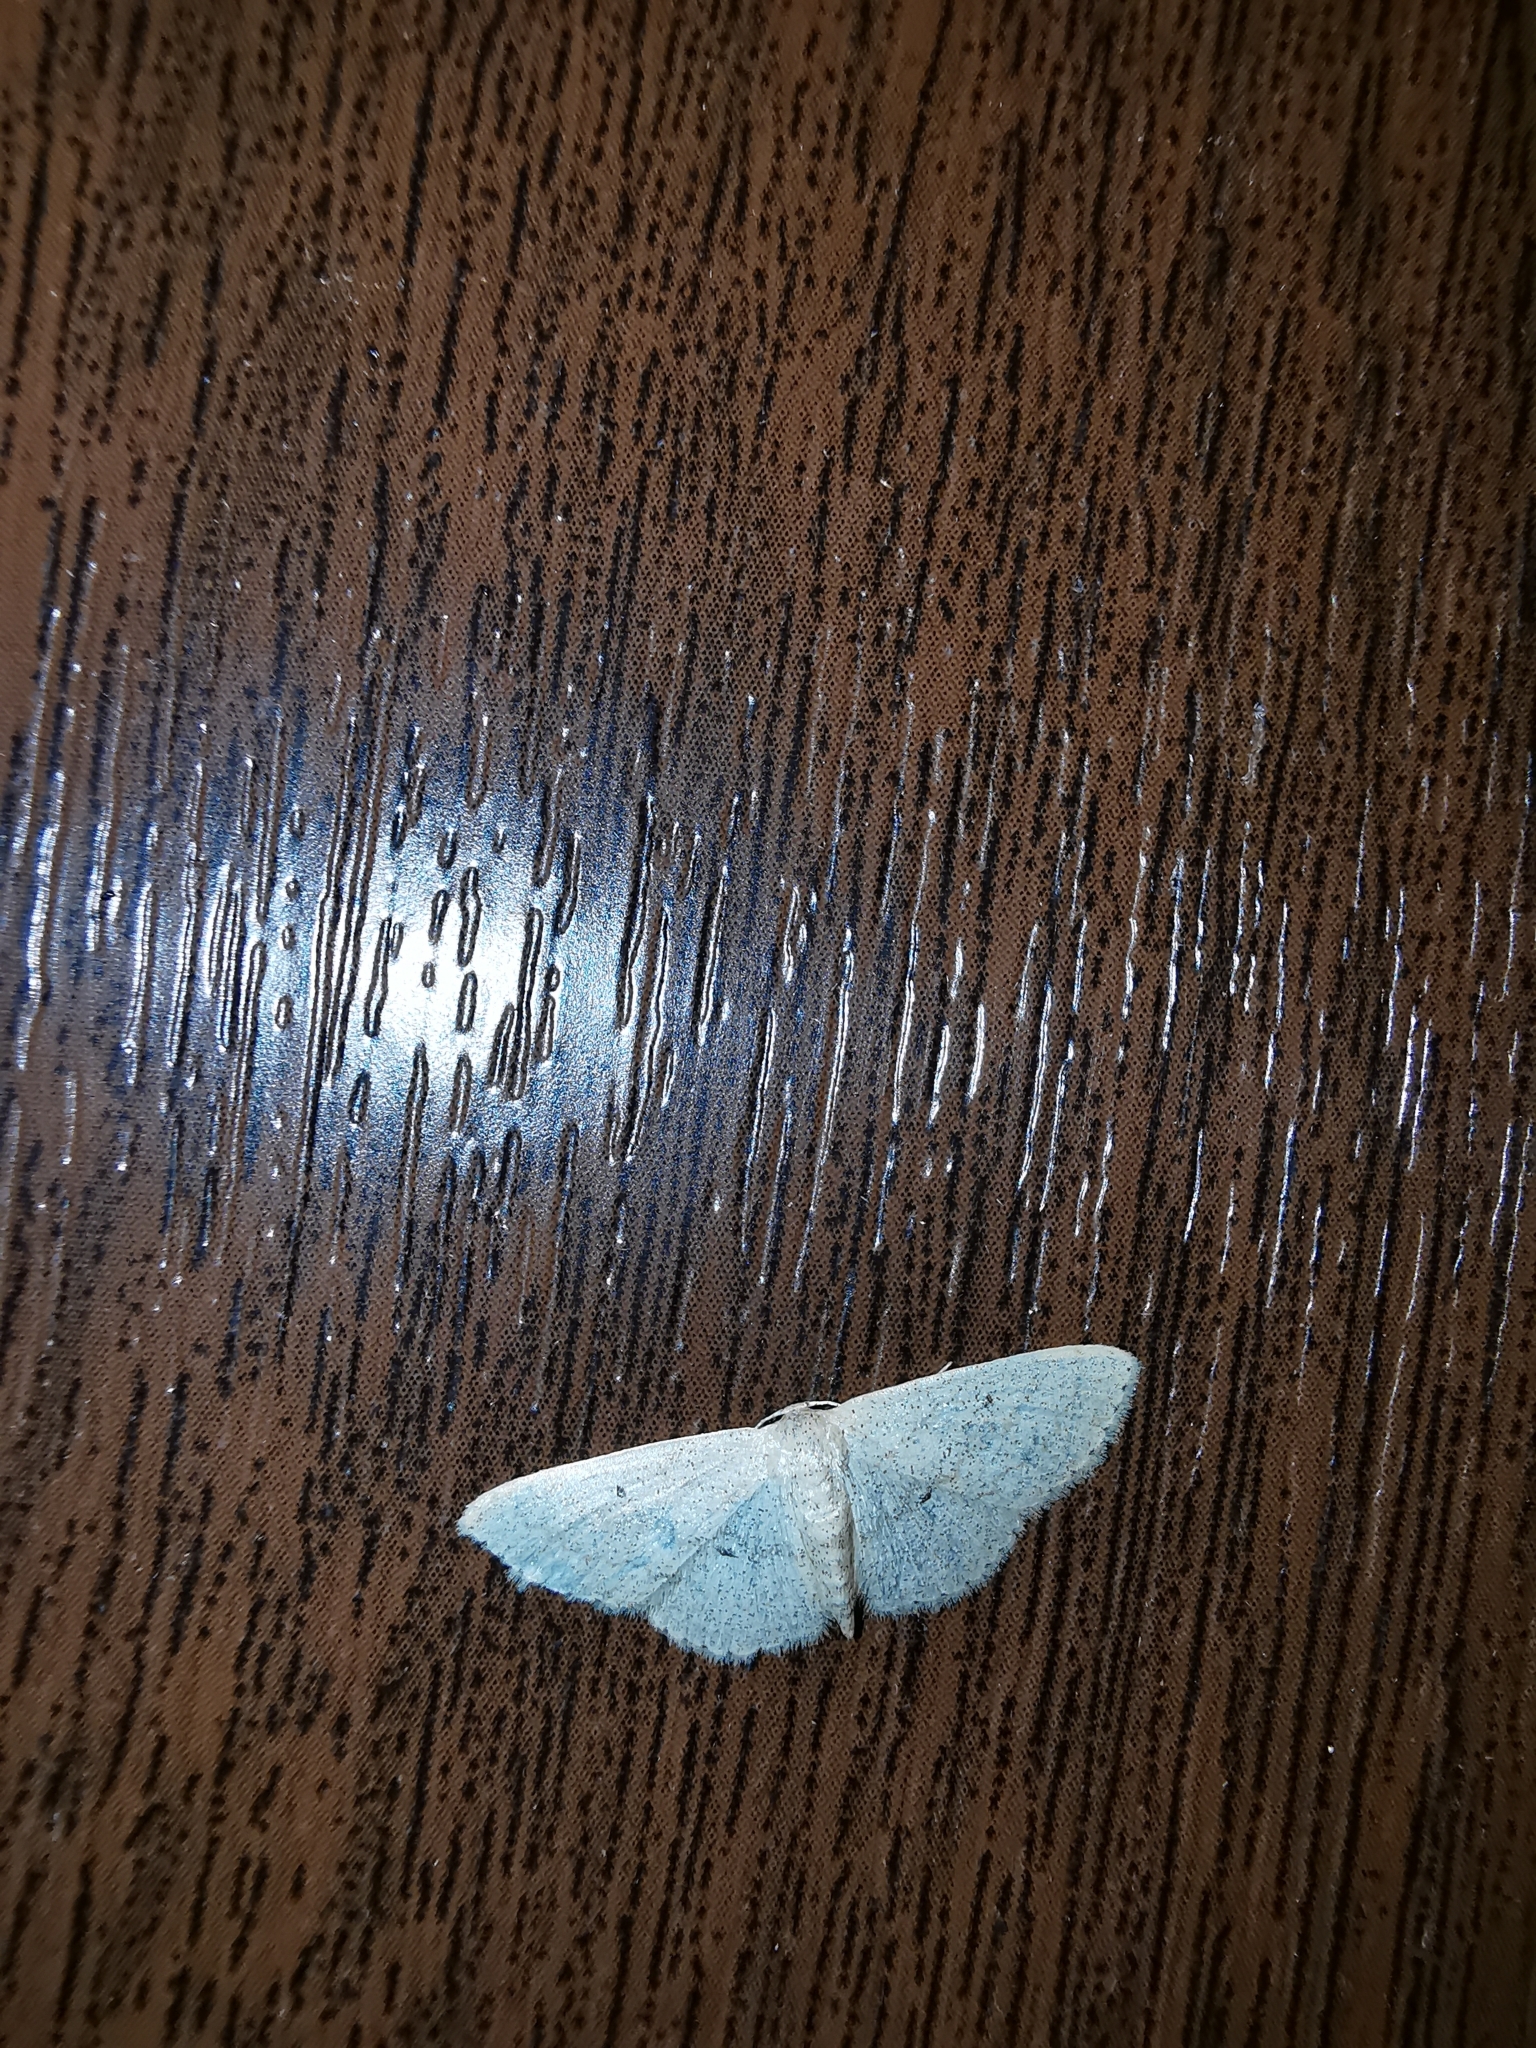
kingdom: Animalia
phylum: Arthropoda
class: Insecta
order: Lepidoptera
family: Geometridae
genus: Idaea
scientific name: Idaea metohiensis
